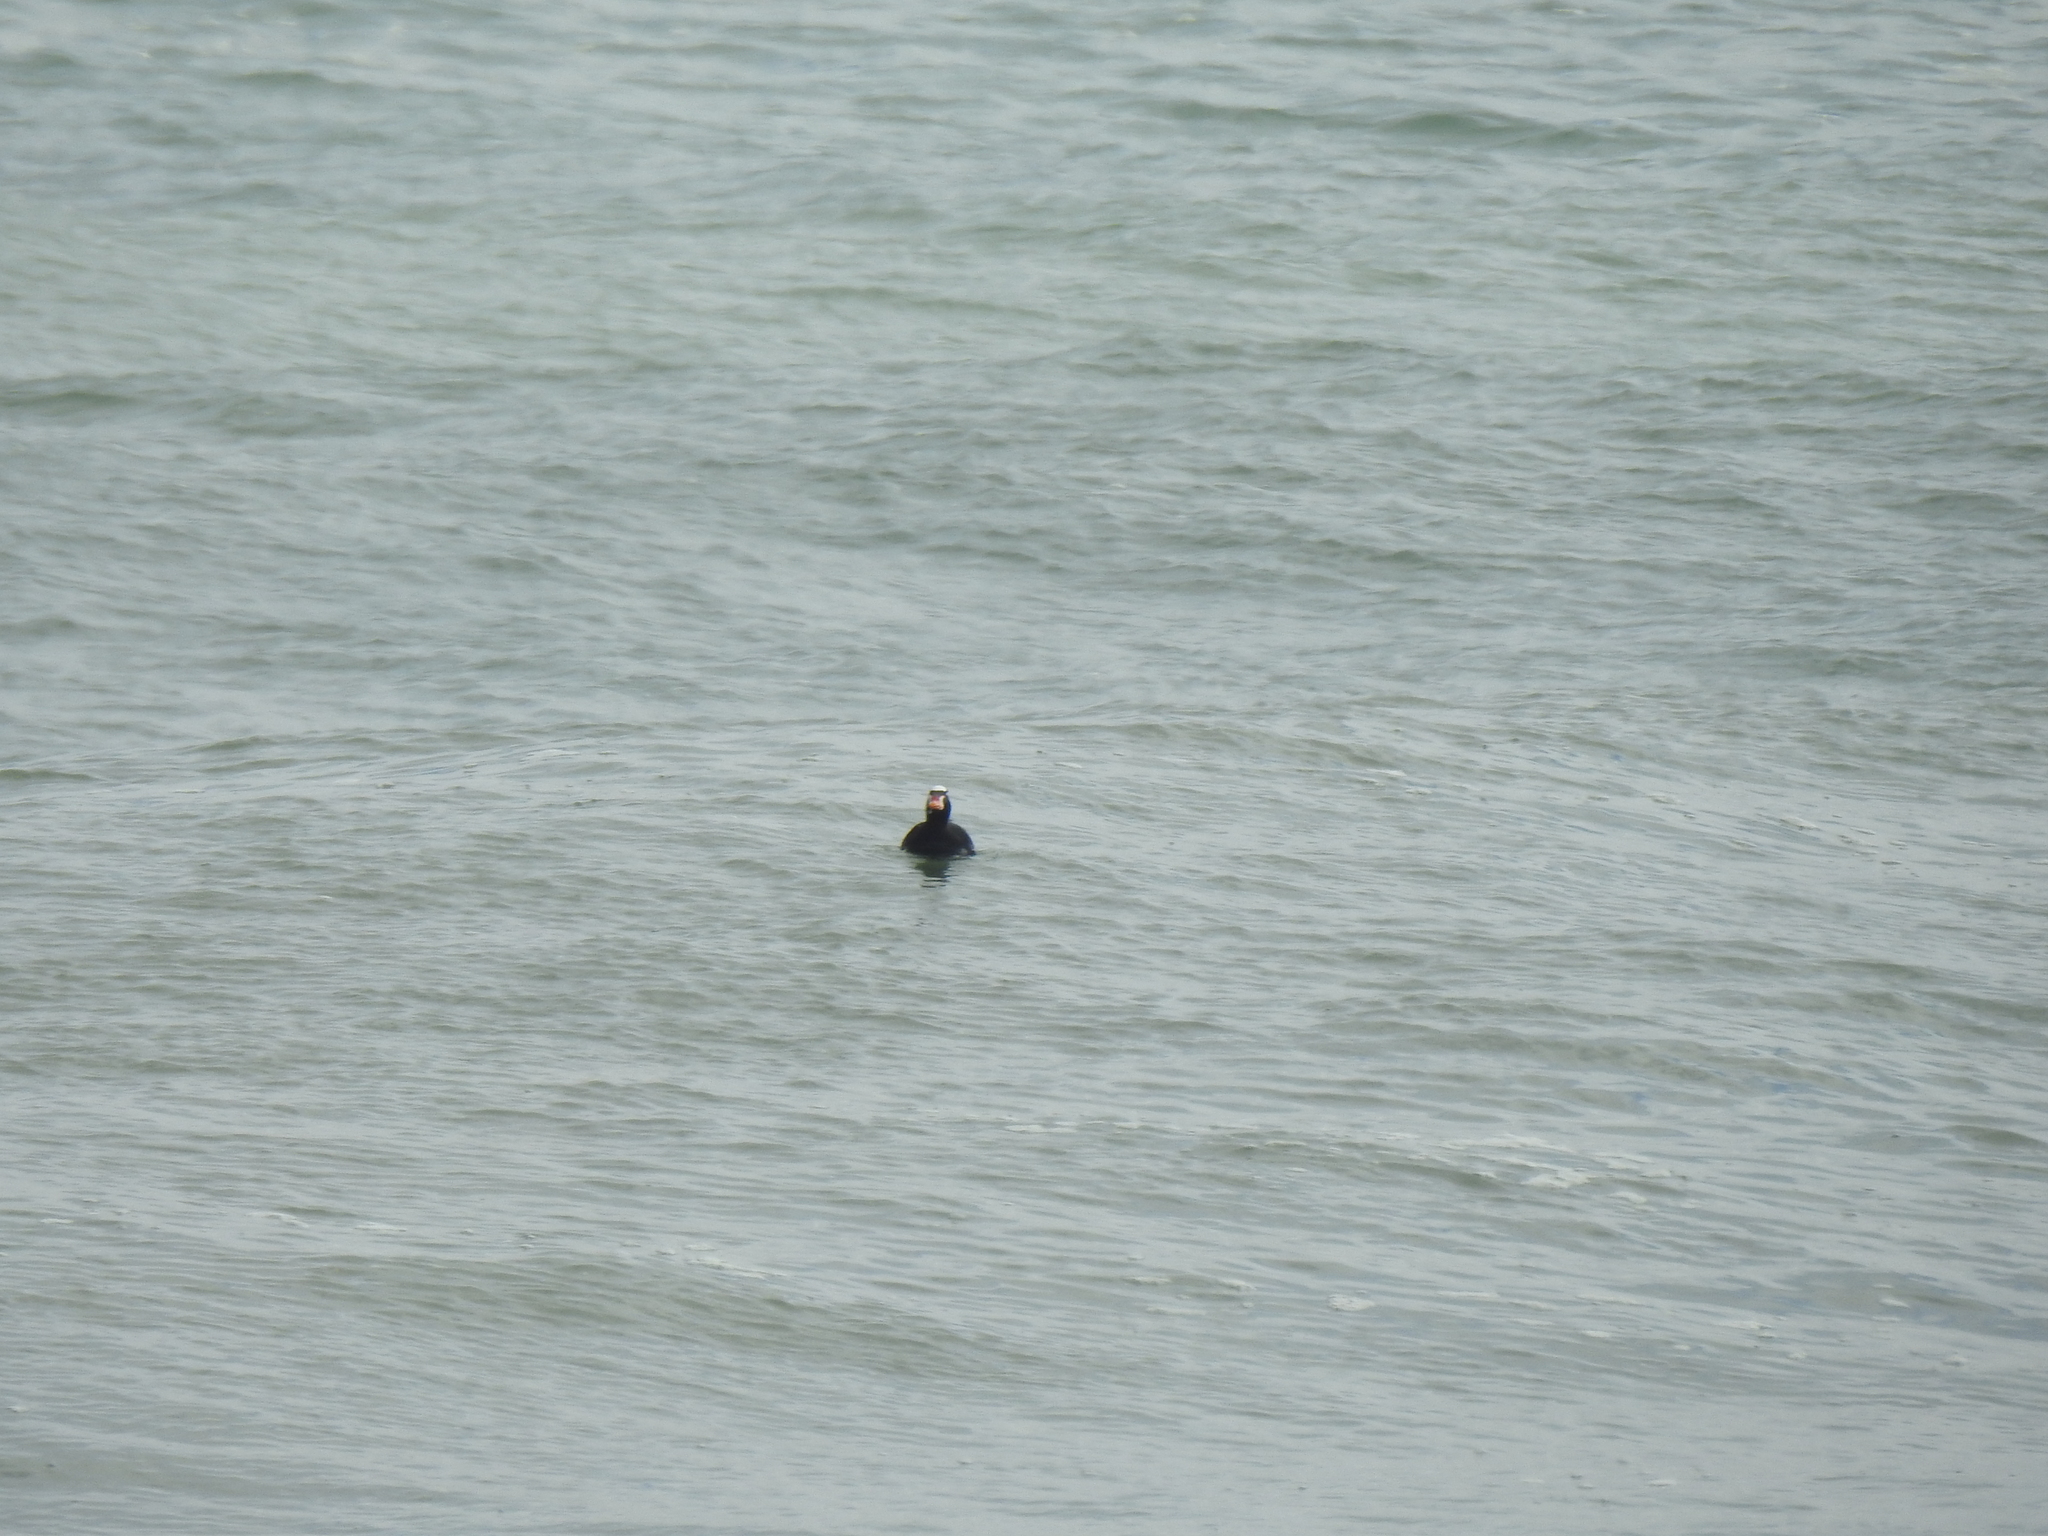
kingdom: Animalia
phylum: Chordata
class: Aves
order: Anseriformes
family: Anatidae
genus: Melanitta
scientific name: Melanitta perspicillata
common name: Surf scoter
